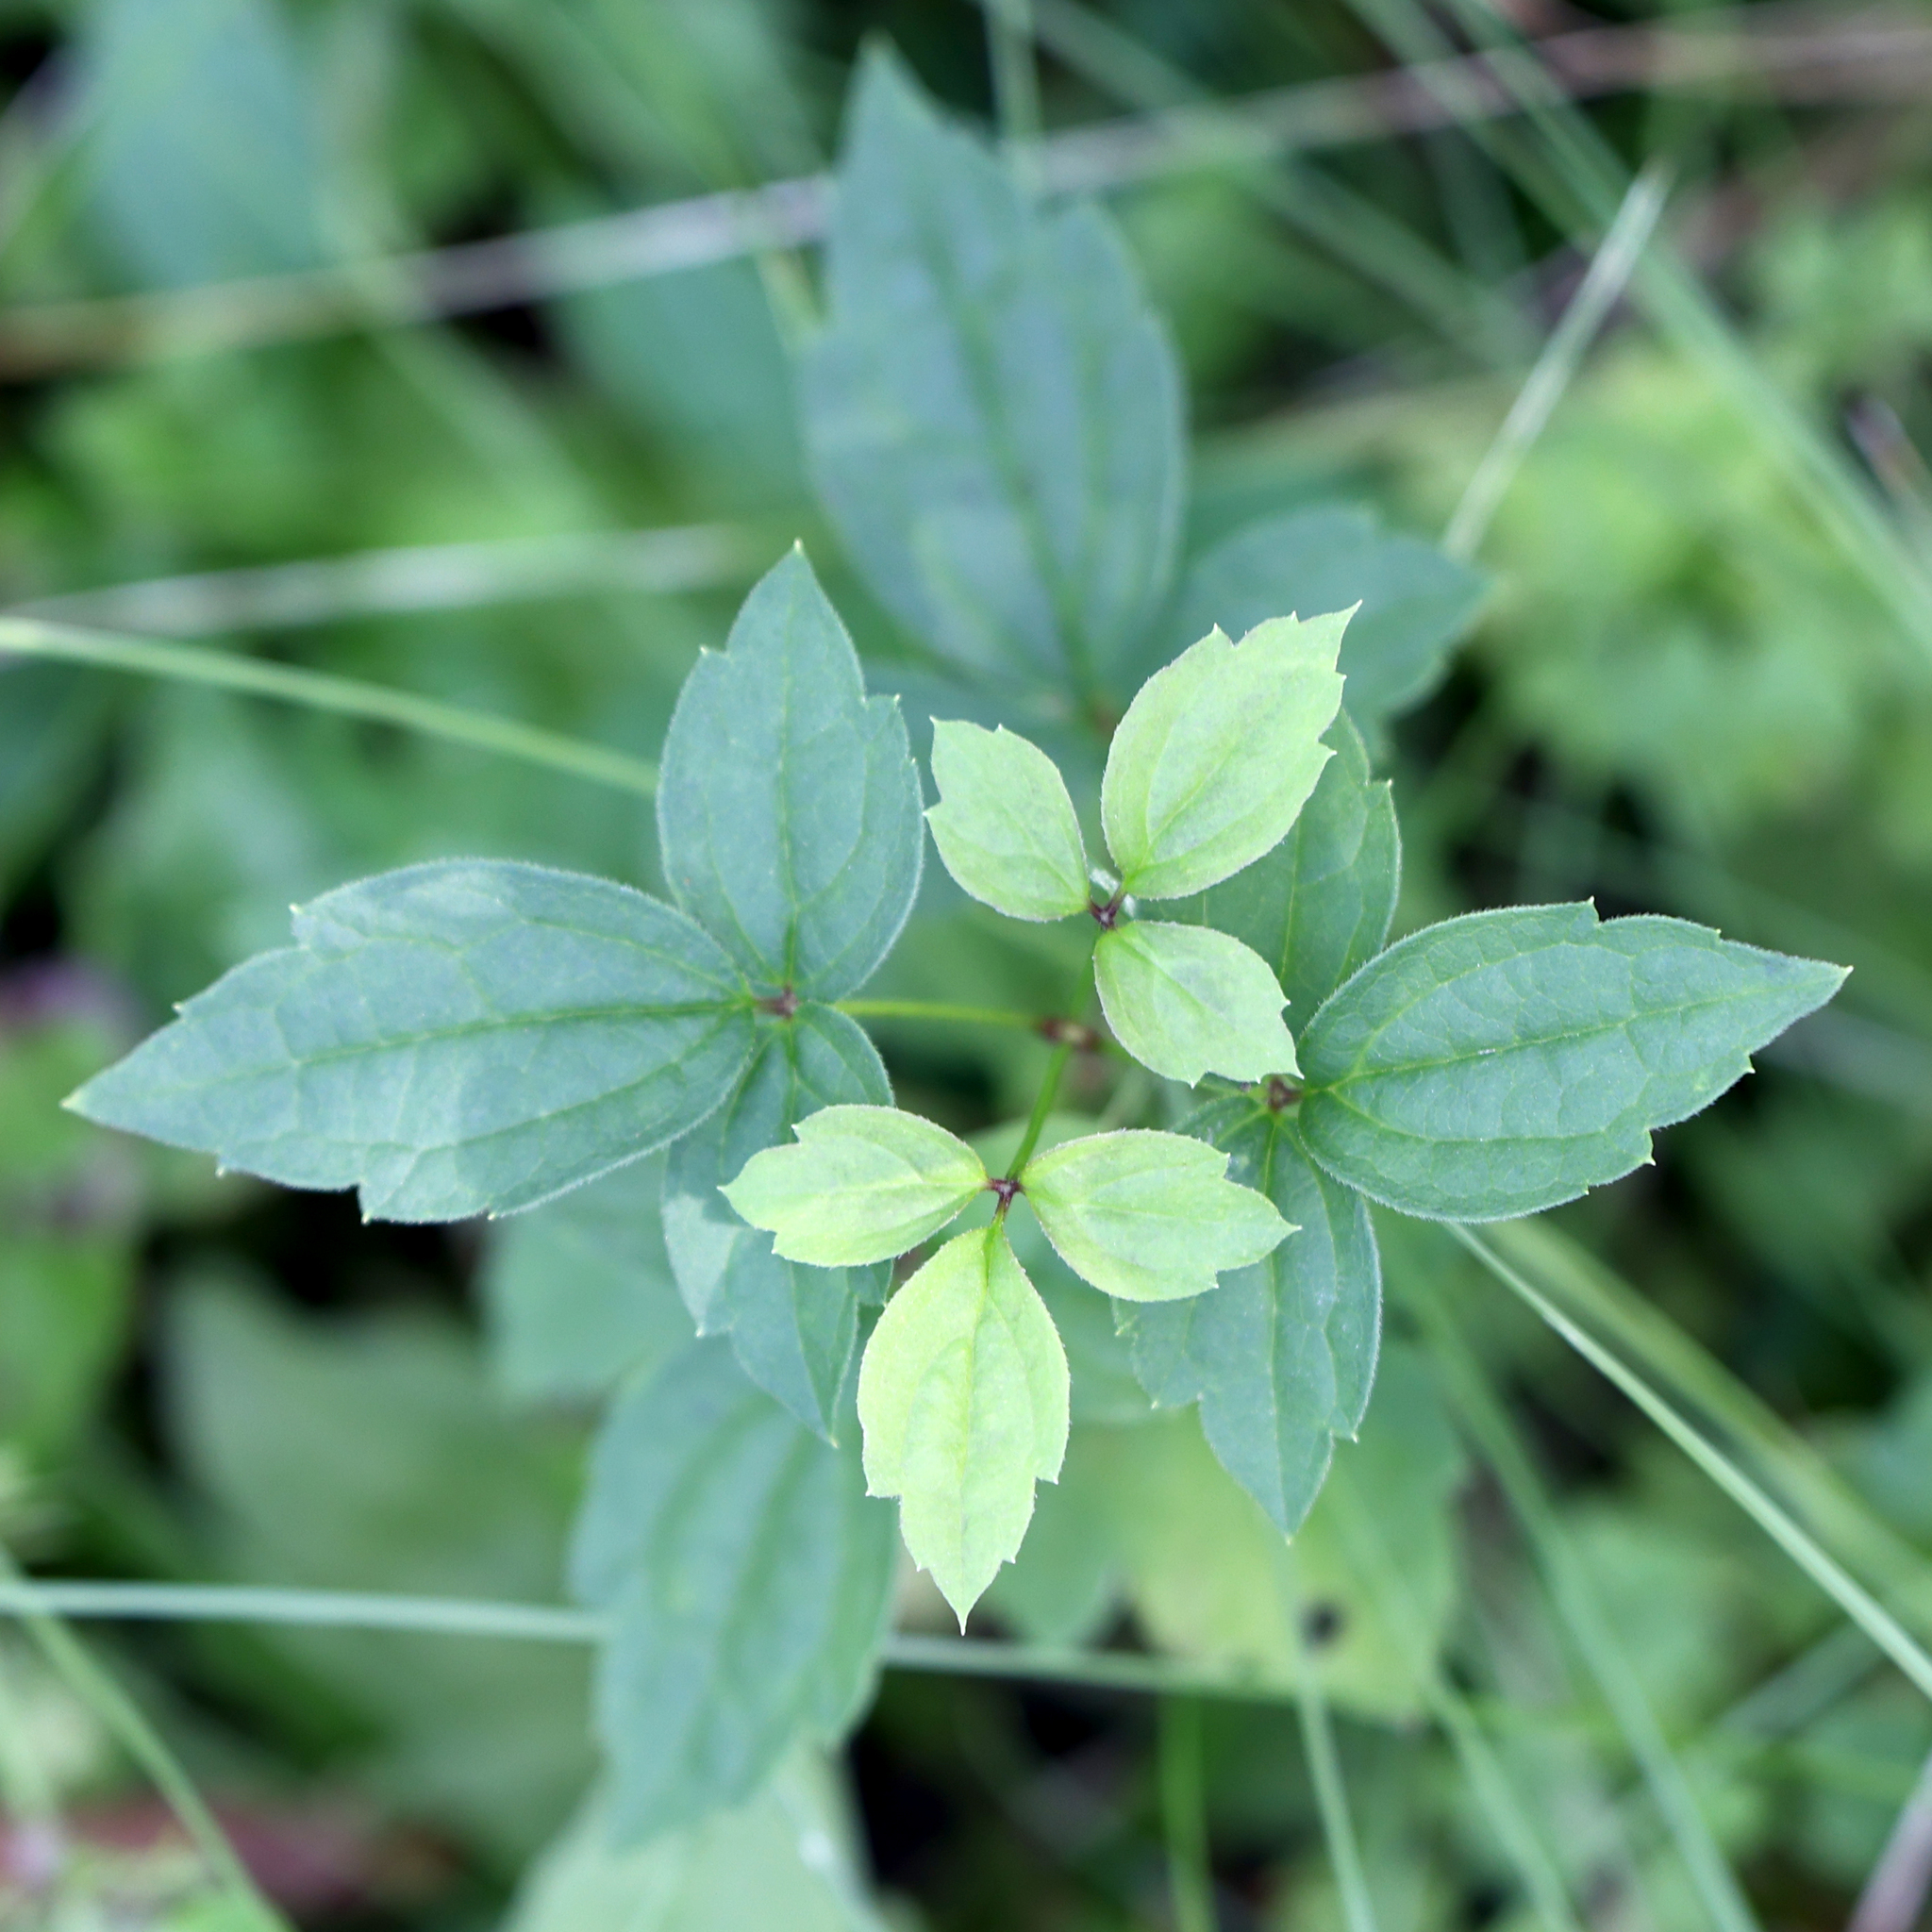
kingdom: Plantae
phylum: Tracheophyta
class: Magnoliopsida
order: Ranunculales
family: Ranunculaceae
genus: Clematis
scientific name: Clematis virginiana
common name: Virgin's-bower
